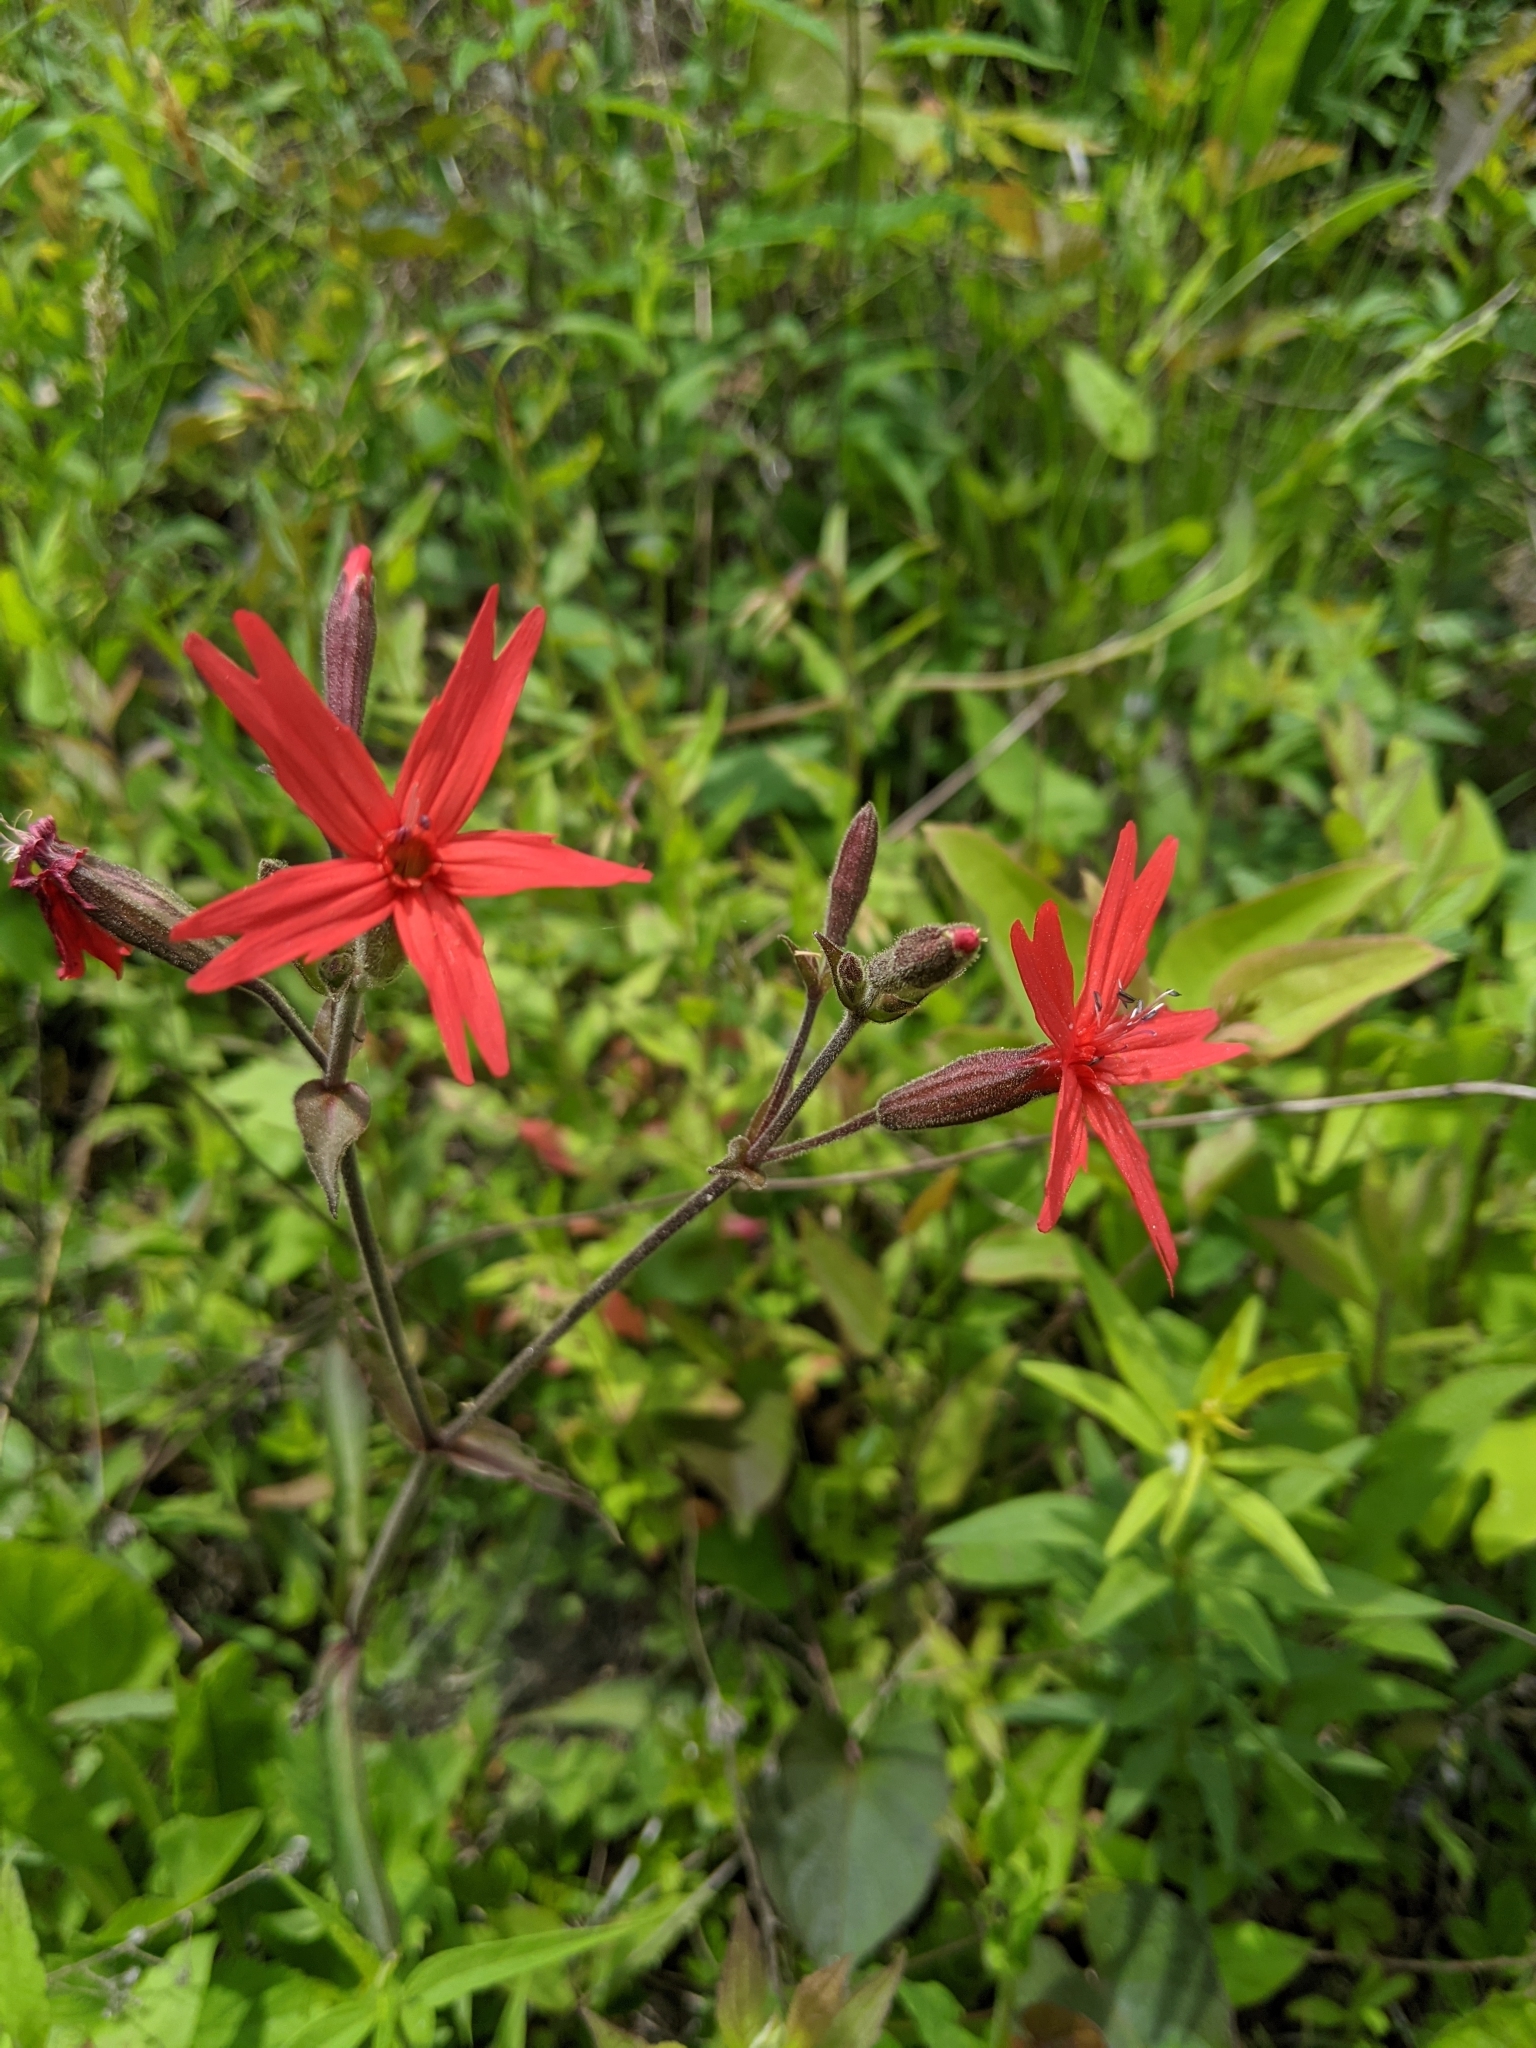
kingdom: Plantae
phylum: Tracheophyta
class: Magnoliopsida
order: Caryophyllales
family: Caryophyllaceae
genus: Silene
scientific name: Silene virginica
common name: Fire-pink
